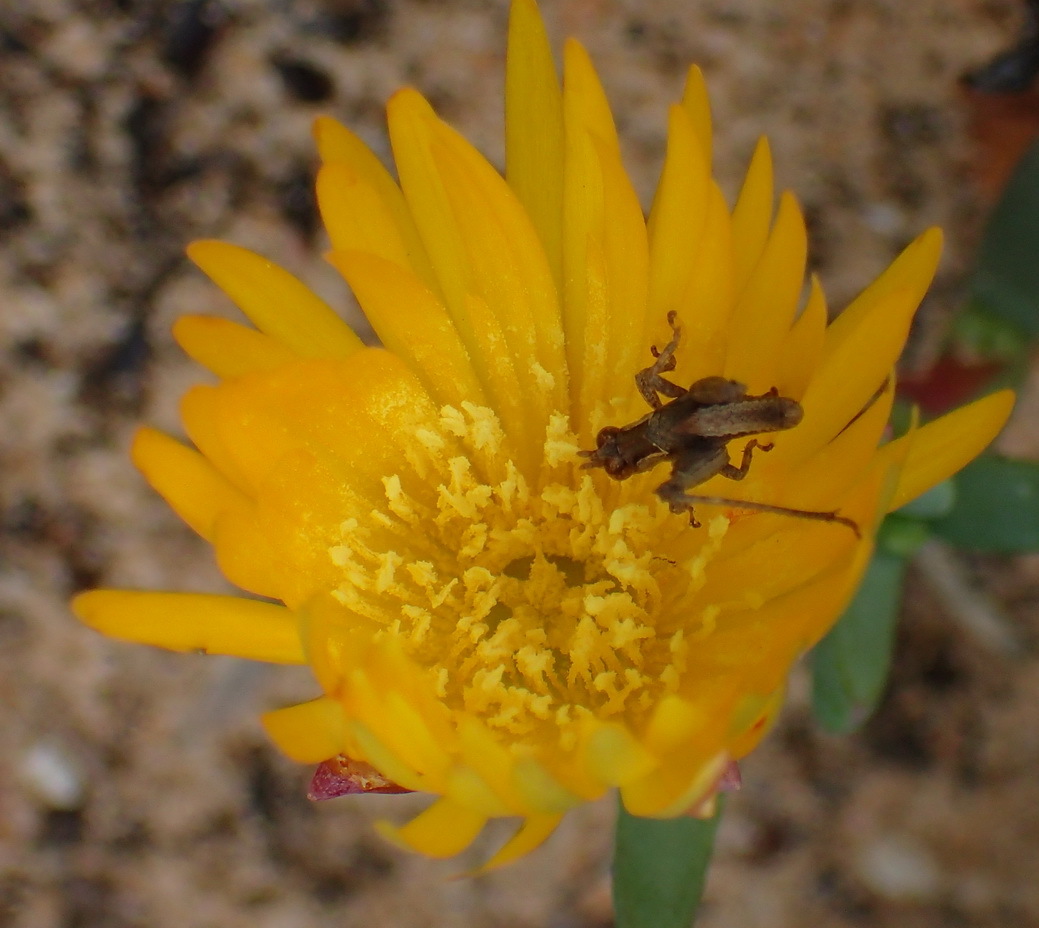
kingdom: Plantae
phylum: Tracheophyta
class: Magnoliopsida
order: Caryophyllales
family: Aizoaceae
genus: Lampranthus
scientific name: Lampranthus glaucus
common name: Noonflower
